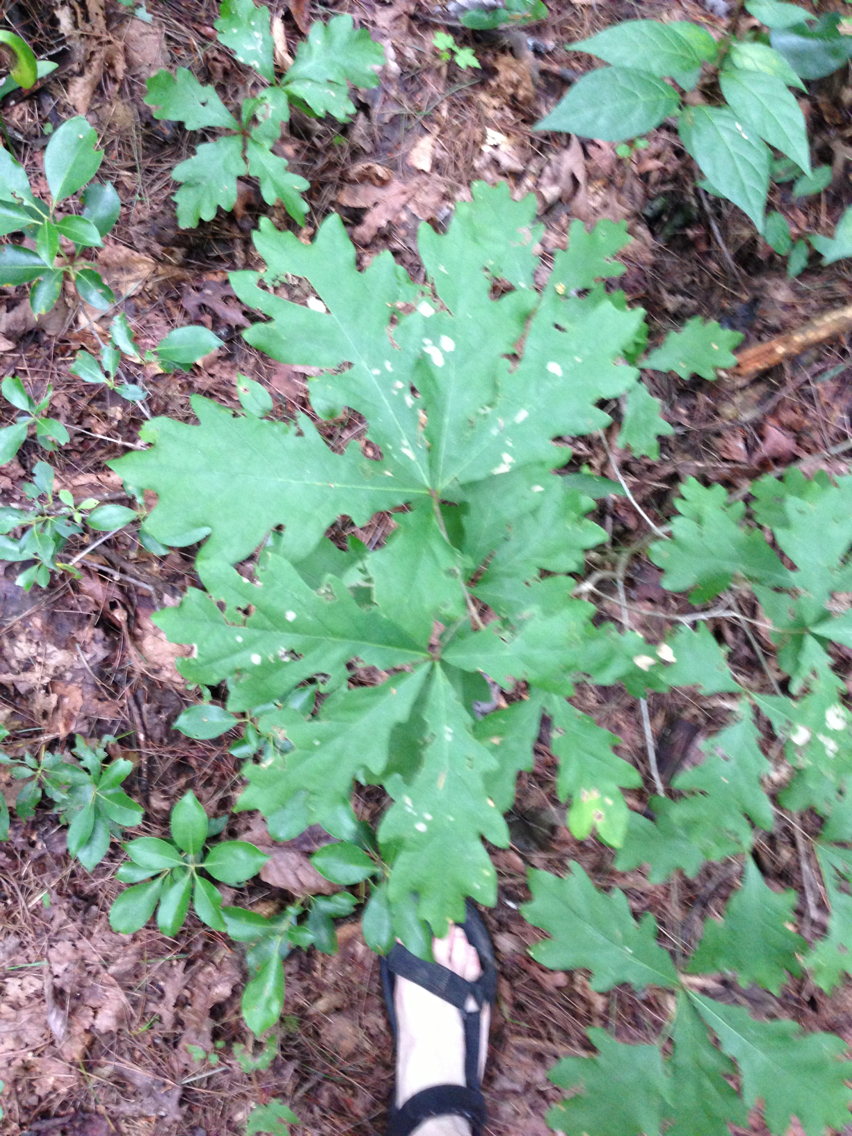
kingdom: Plantae
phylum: Tracheophyta
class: Magnoliopsida
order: Fagales
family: Fagaceae
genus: Quercus
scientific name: Quercus alba
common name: White oak
